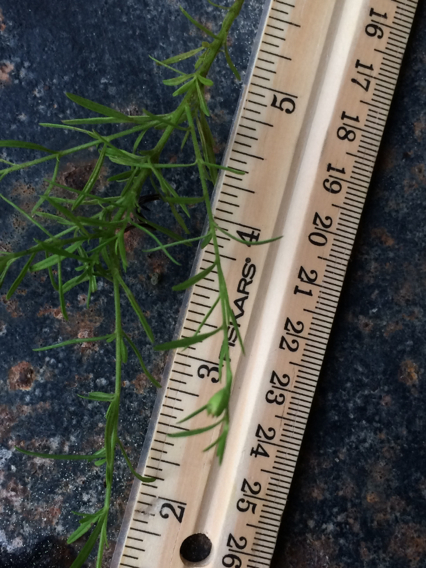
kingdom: Plantae
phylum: Tracheophyta
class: Magnoliopsida
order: Lamiales
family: Orobanchaceae
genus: Agalinis
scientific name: Agalinis purpurea
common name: Purple false foxglove
